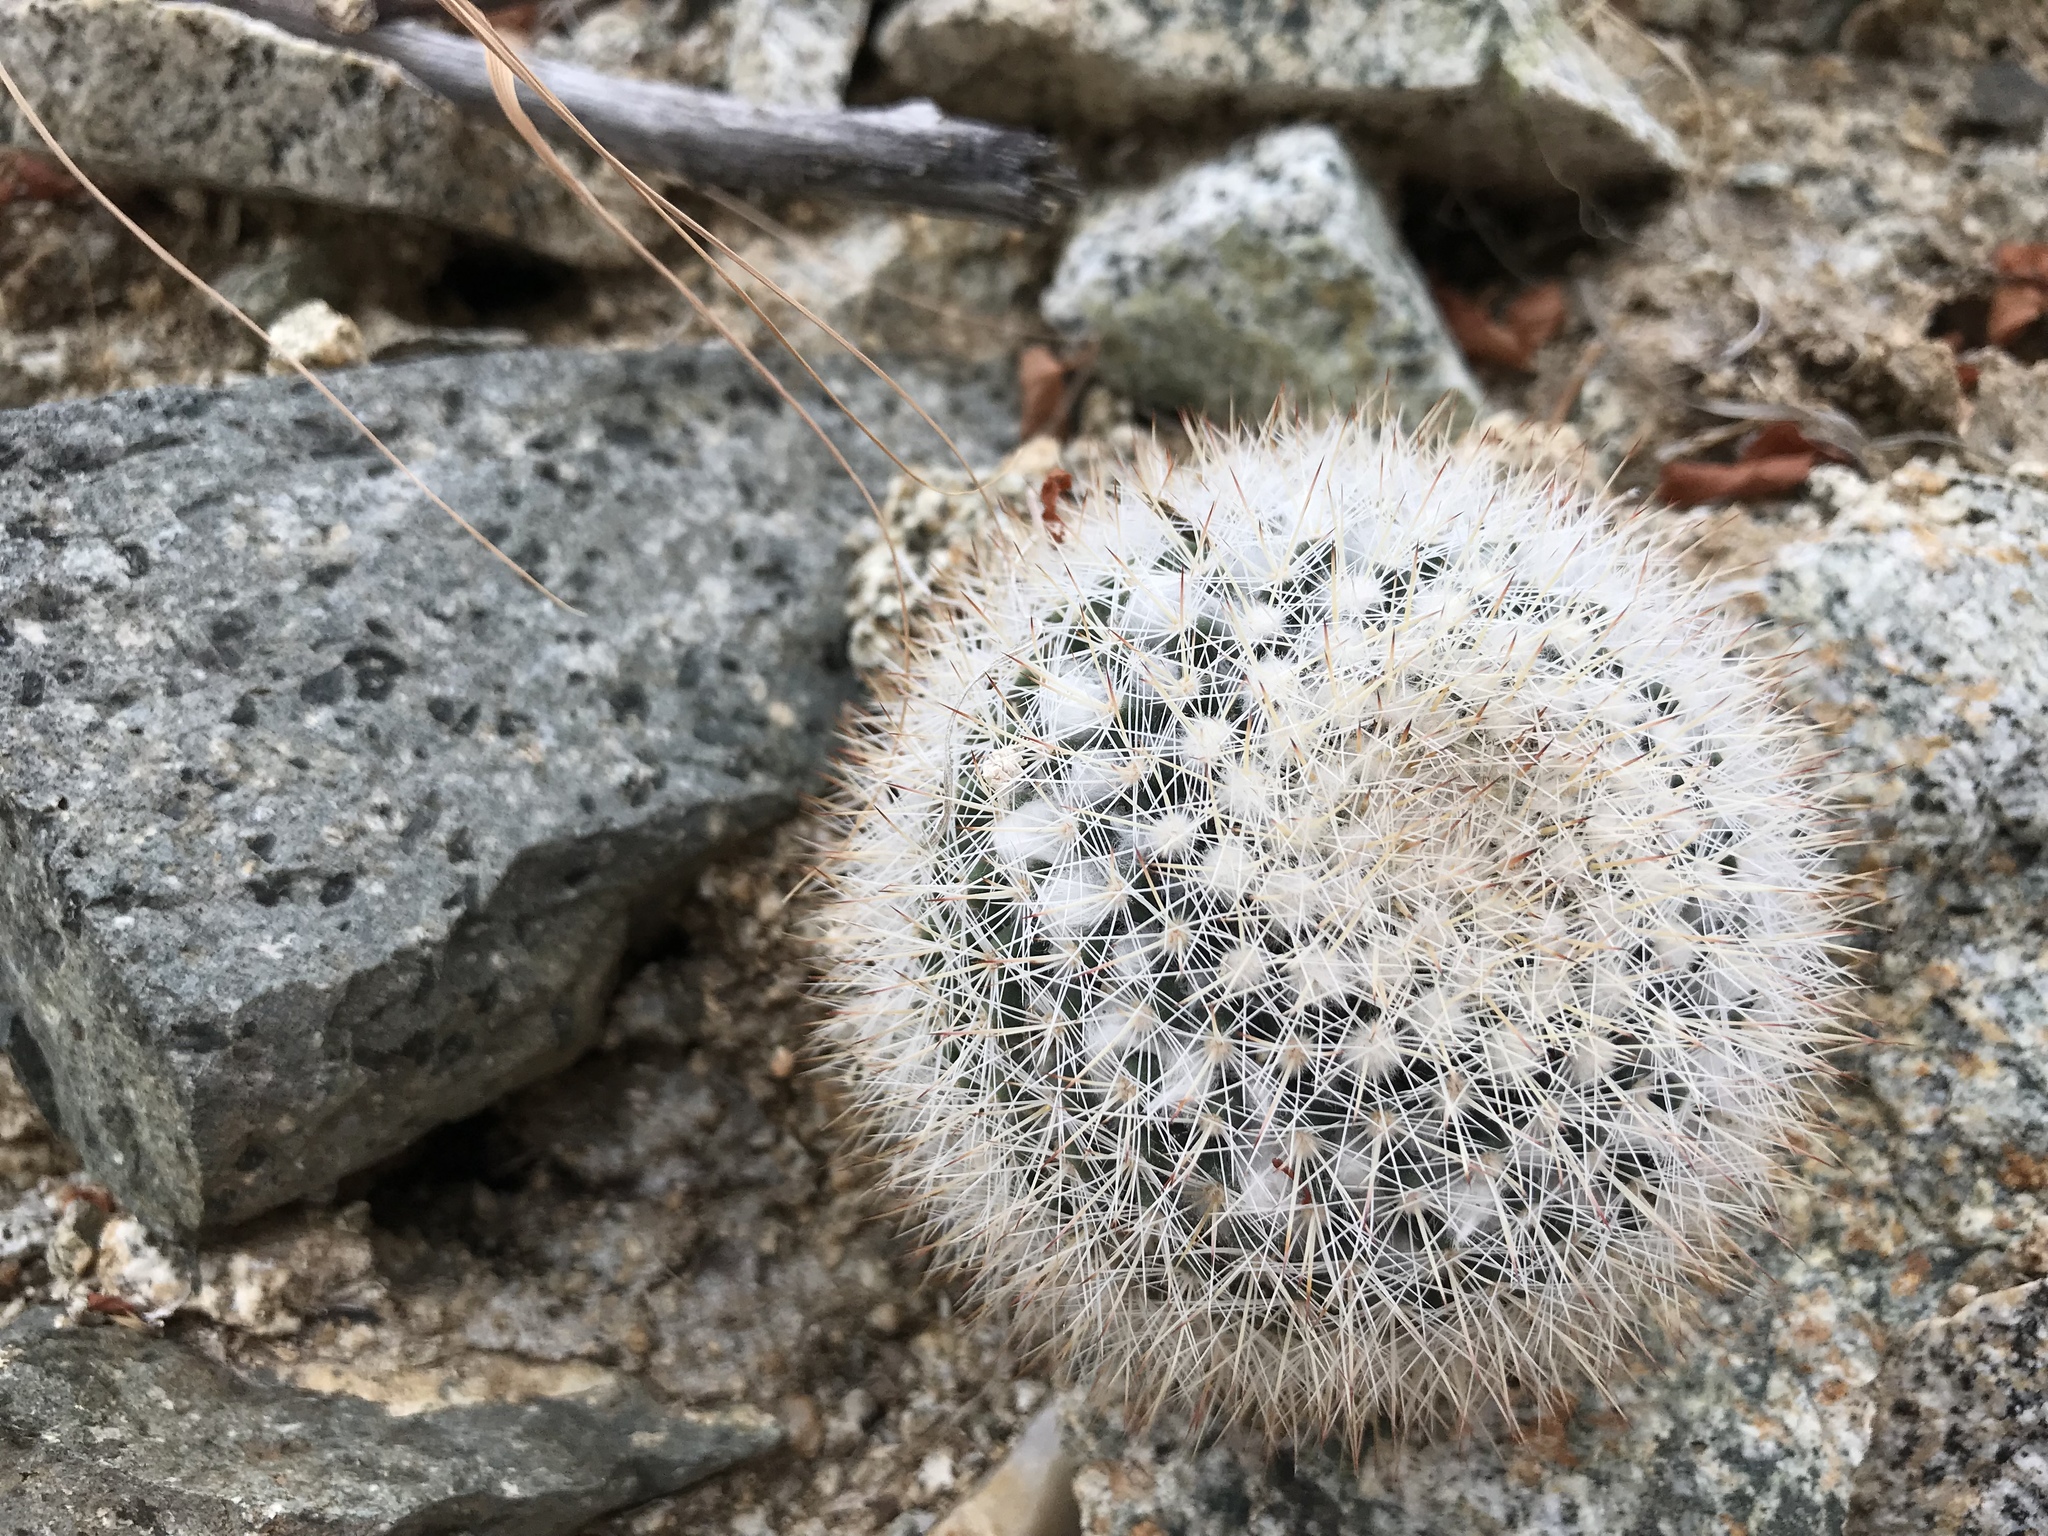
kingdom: Plantae
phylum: Tracheophyta
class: Magnoliopsida
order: Caryophyllales
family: Cactaceae
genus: Mammillaria
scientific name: Mammillaria evermanniana
